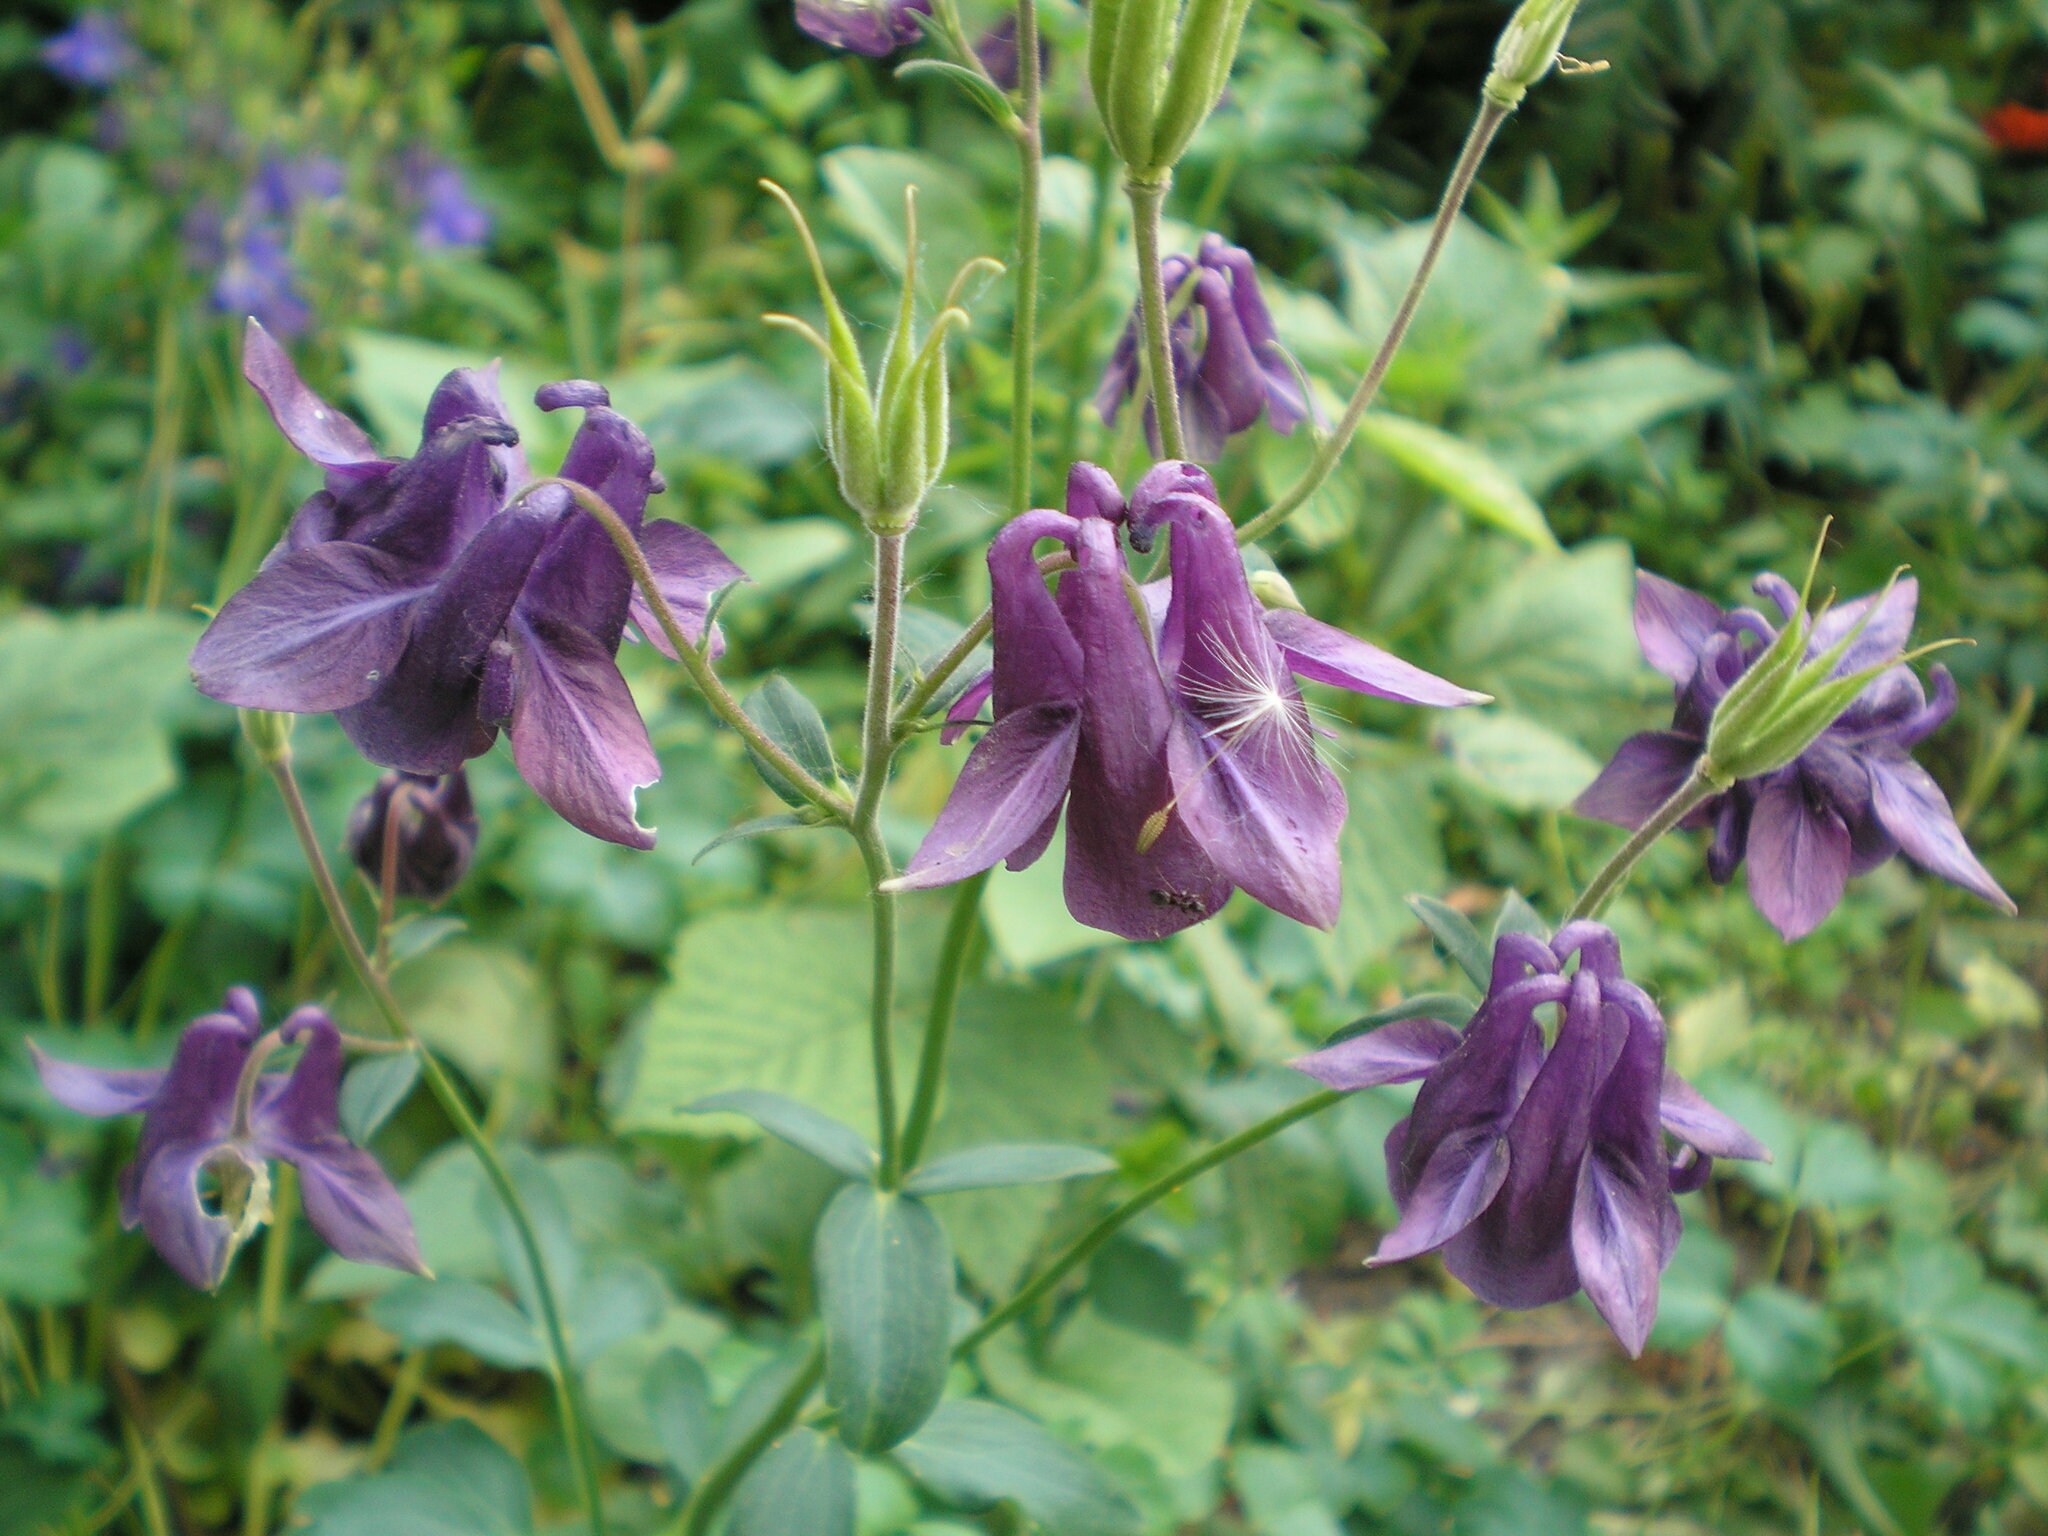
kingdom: Plantae
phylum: Tracheophyta
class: Magnoliopsida
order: Ranunculales
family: Ranunculaceae
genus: Aquilegia
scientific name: Aquilegia vulgaris
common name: Columbine
